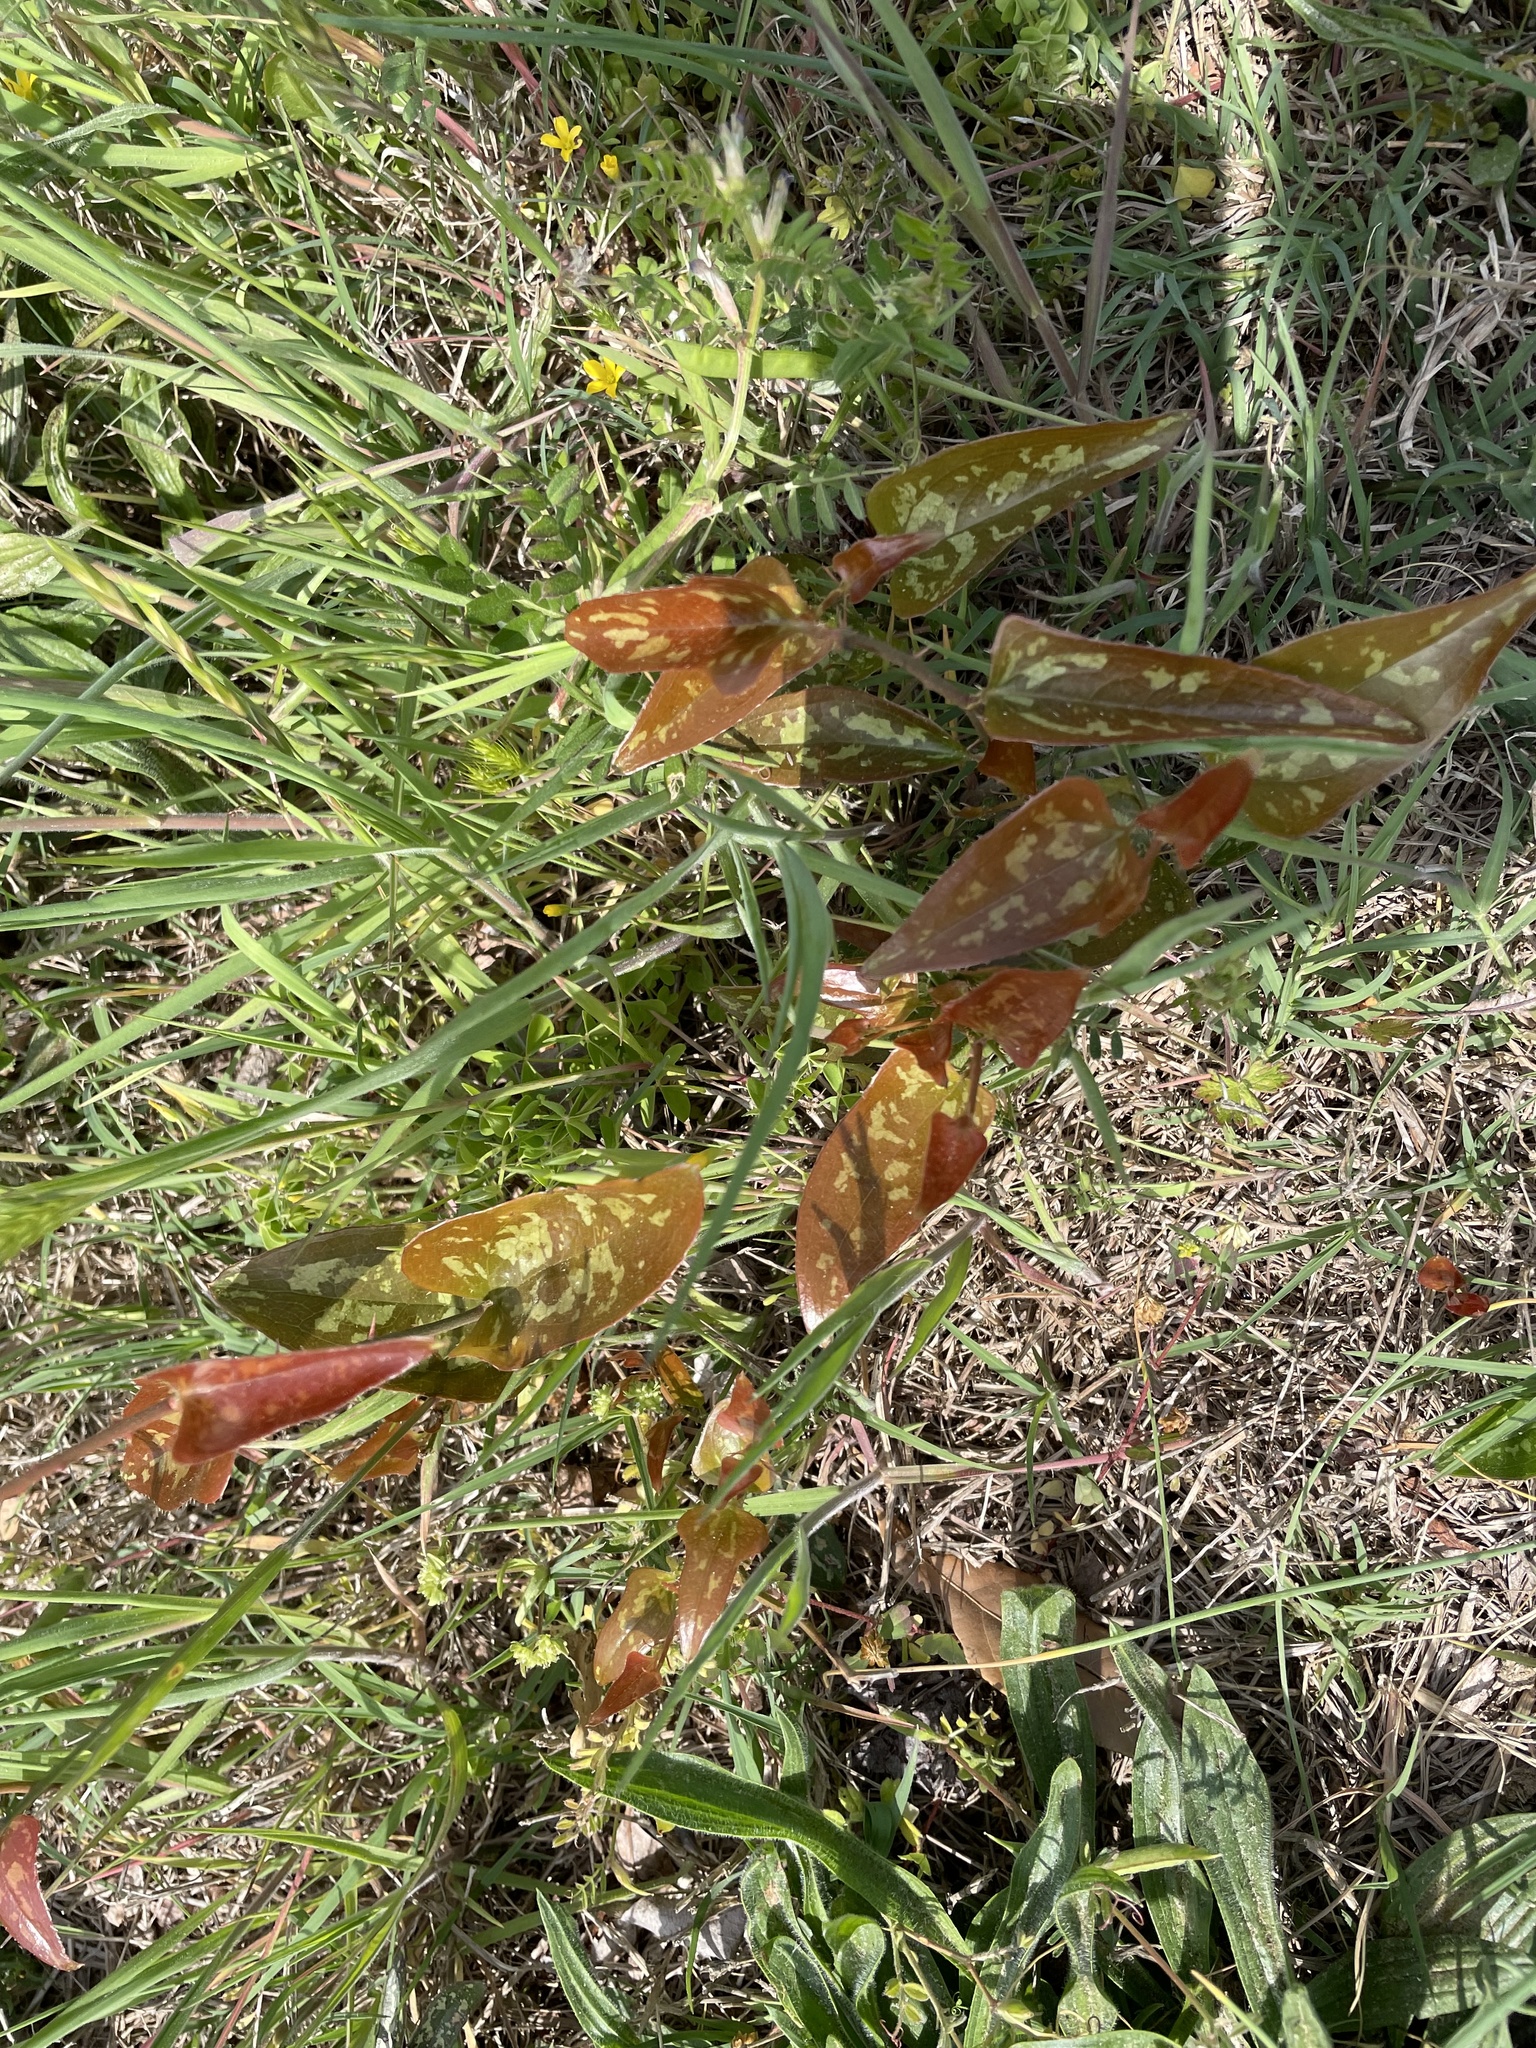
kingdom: Plantae
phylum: Tracheophyta
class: Liliopsida
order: Liliales
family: Smilacaceae
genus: Smilax
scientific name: Smilax bona-nox
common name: Catbrier
